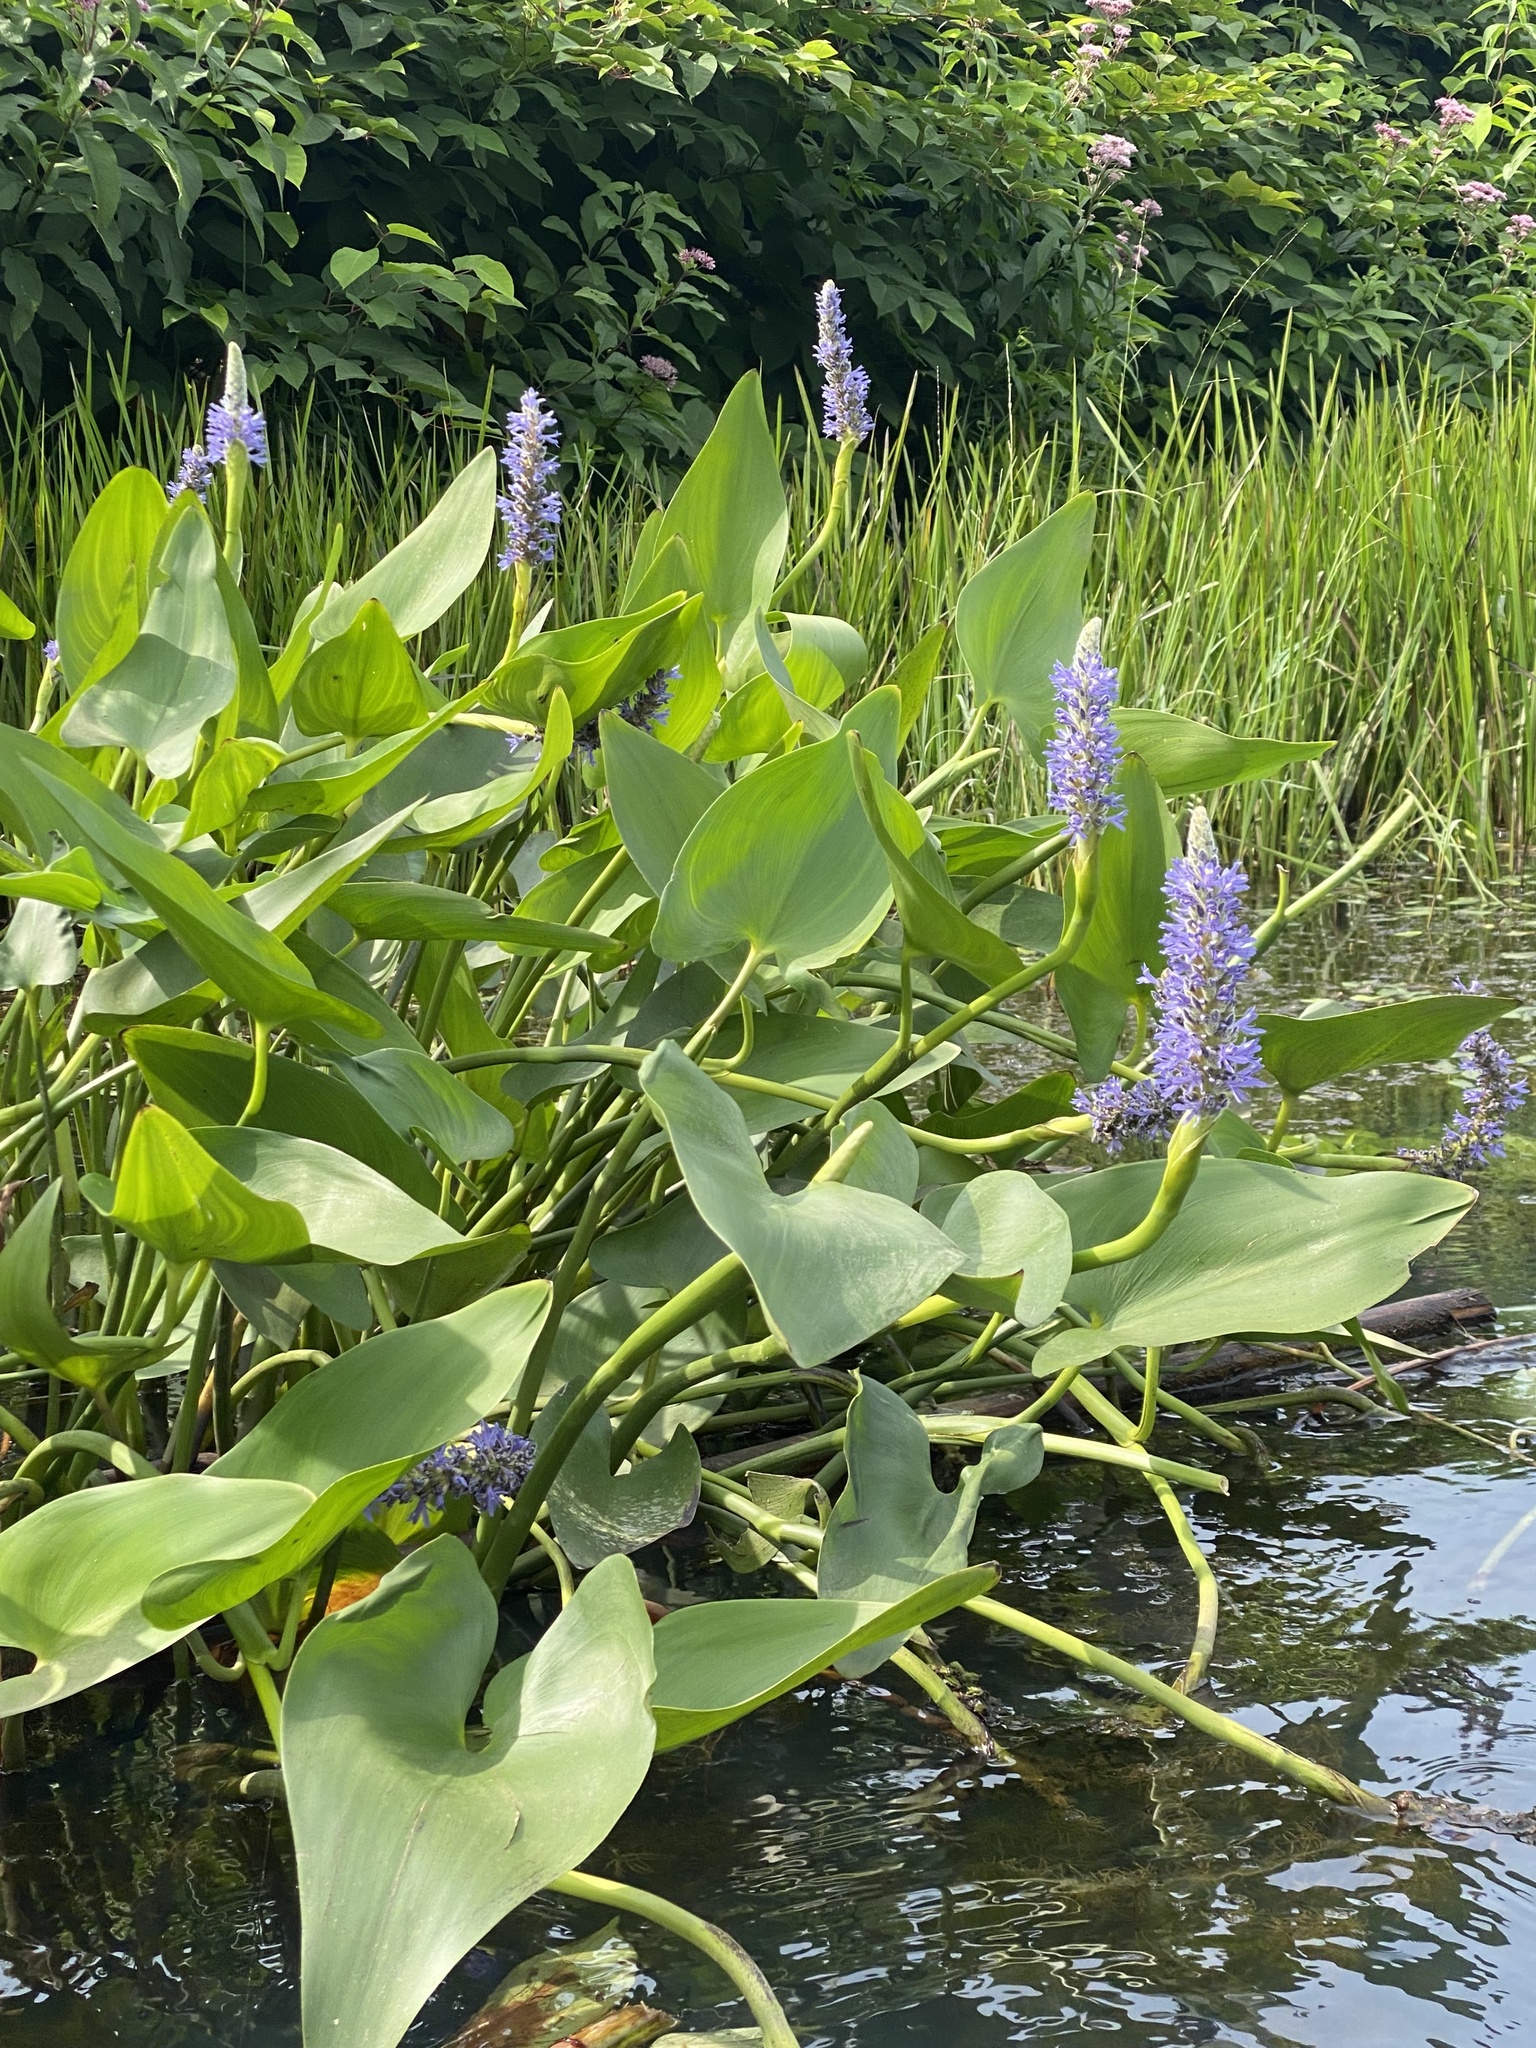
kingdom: Plantae
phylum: Tracheophyta
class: Liliopsida
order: Commelinales
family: Pontederiaceae
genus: Pontederia
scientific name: Pontederia cordata
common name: Pickerelweed
